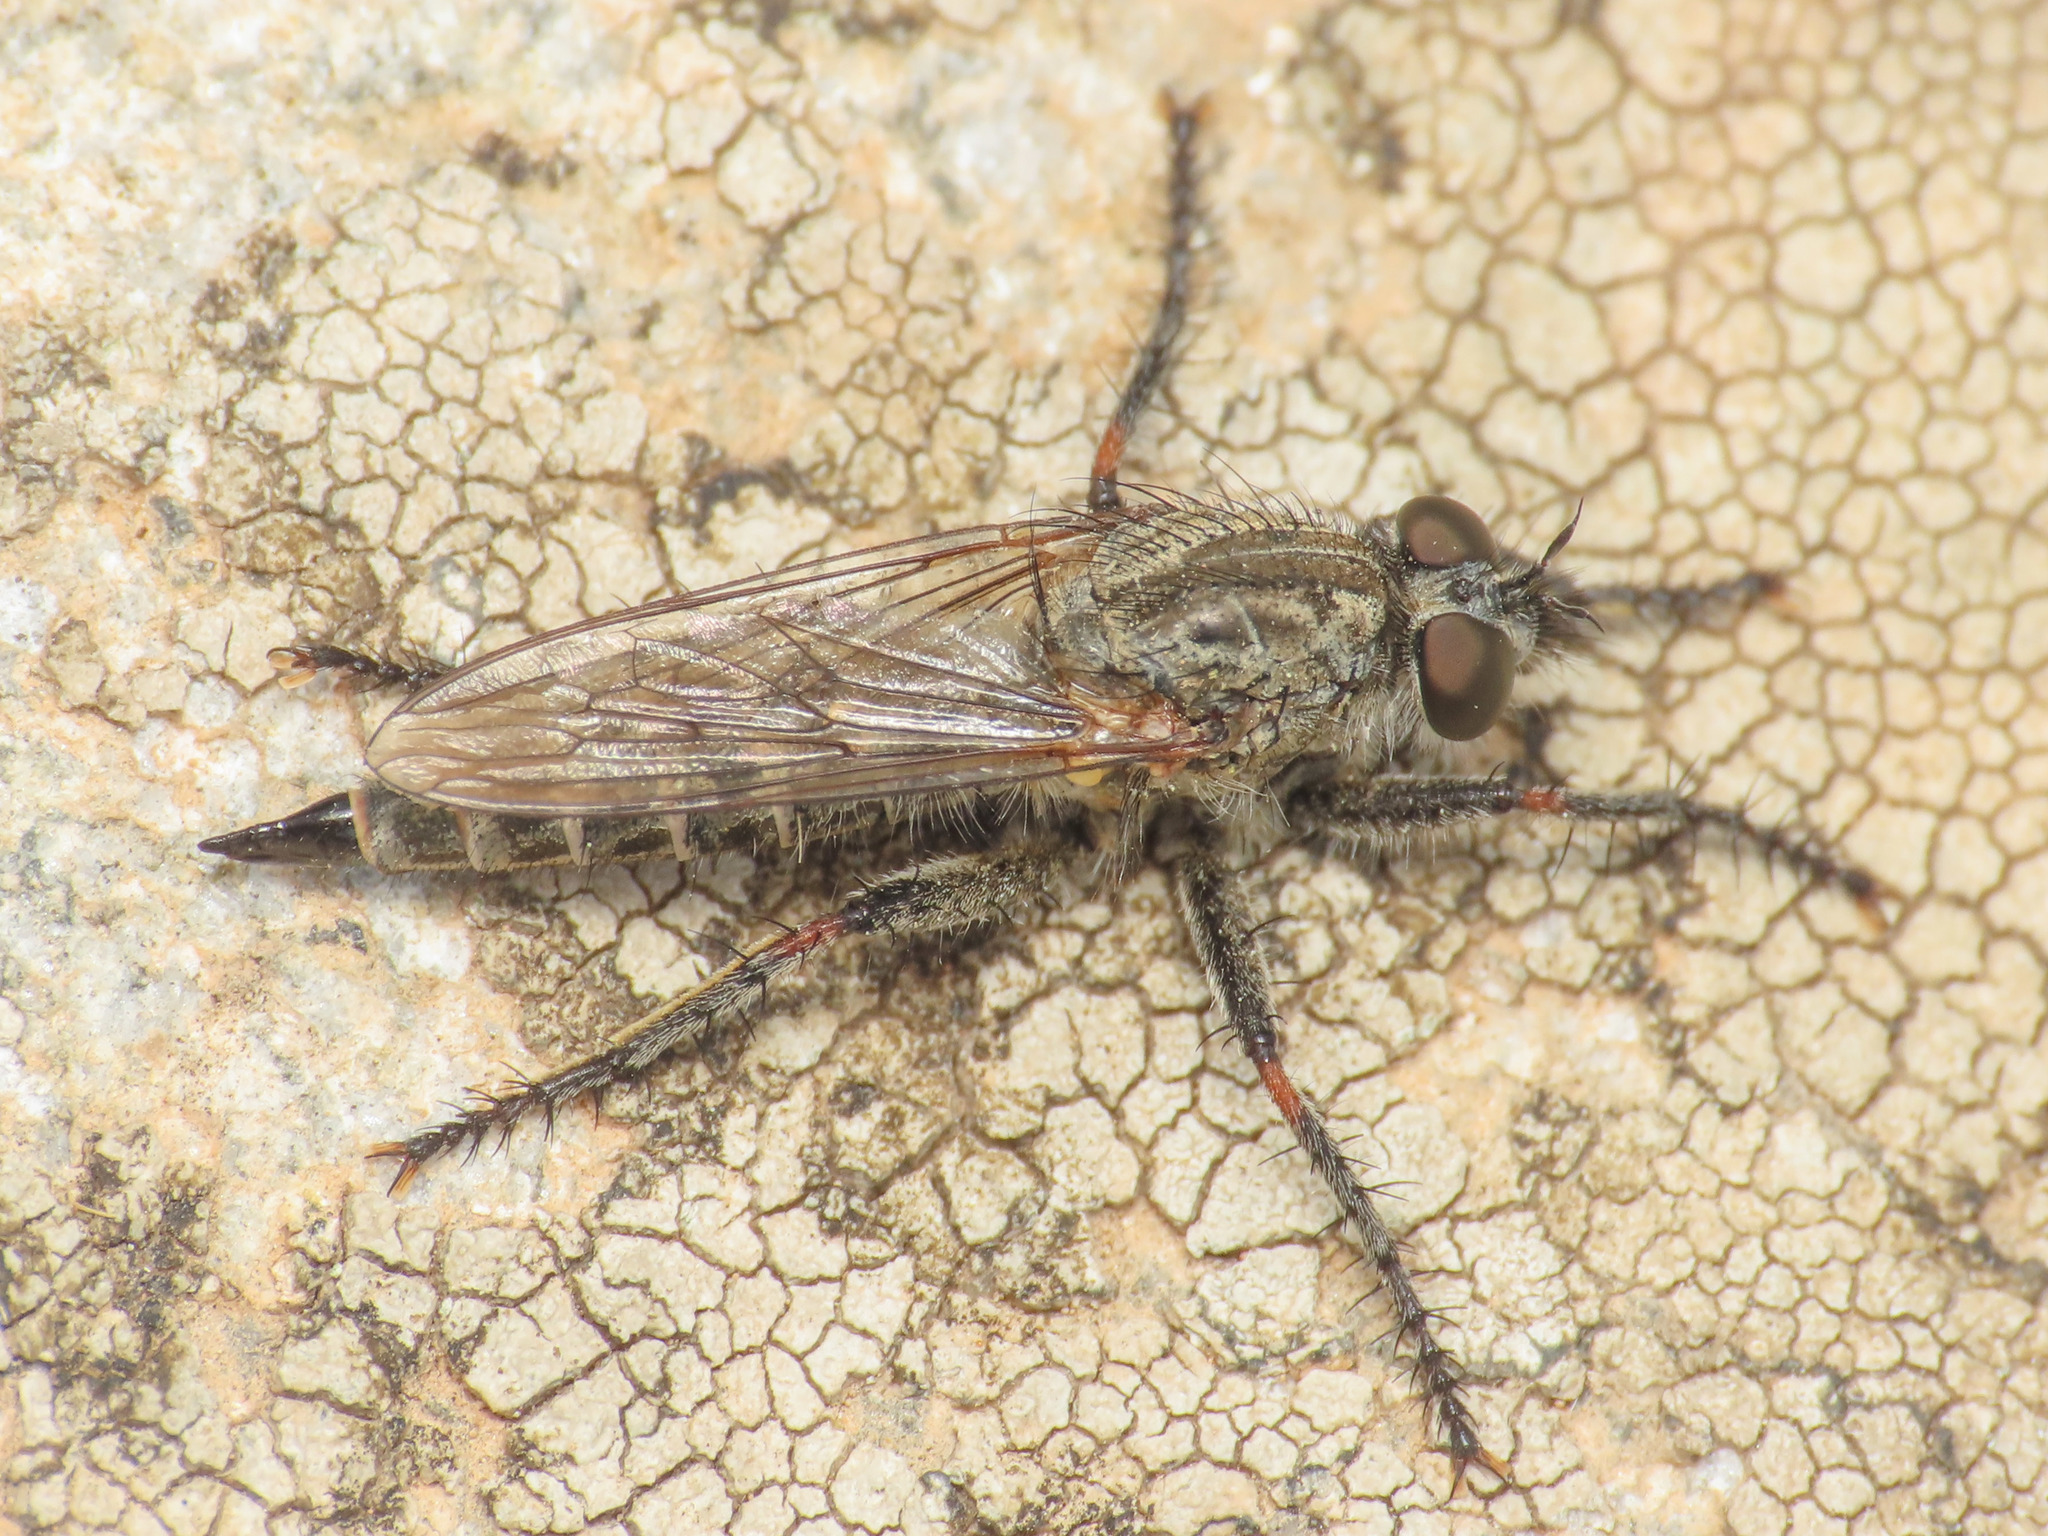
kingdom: Animalia
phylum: Arthropoda
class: Insecta
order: Diptera
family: Asilidae
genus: Dysmachus
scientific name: Dysmachus
